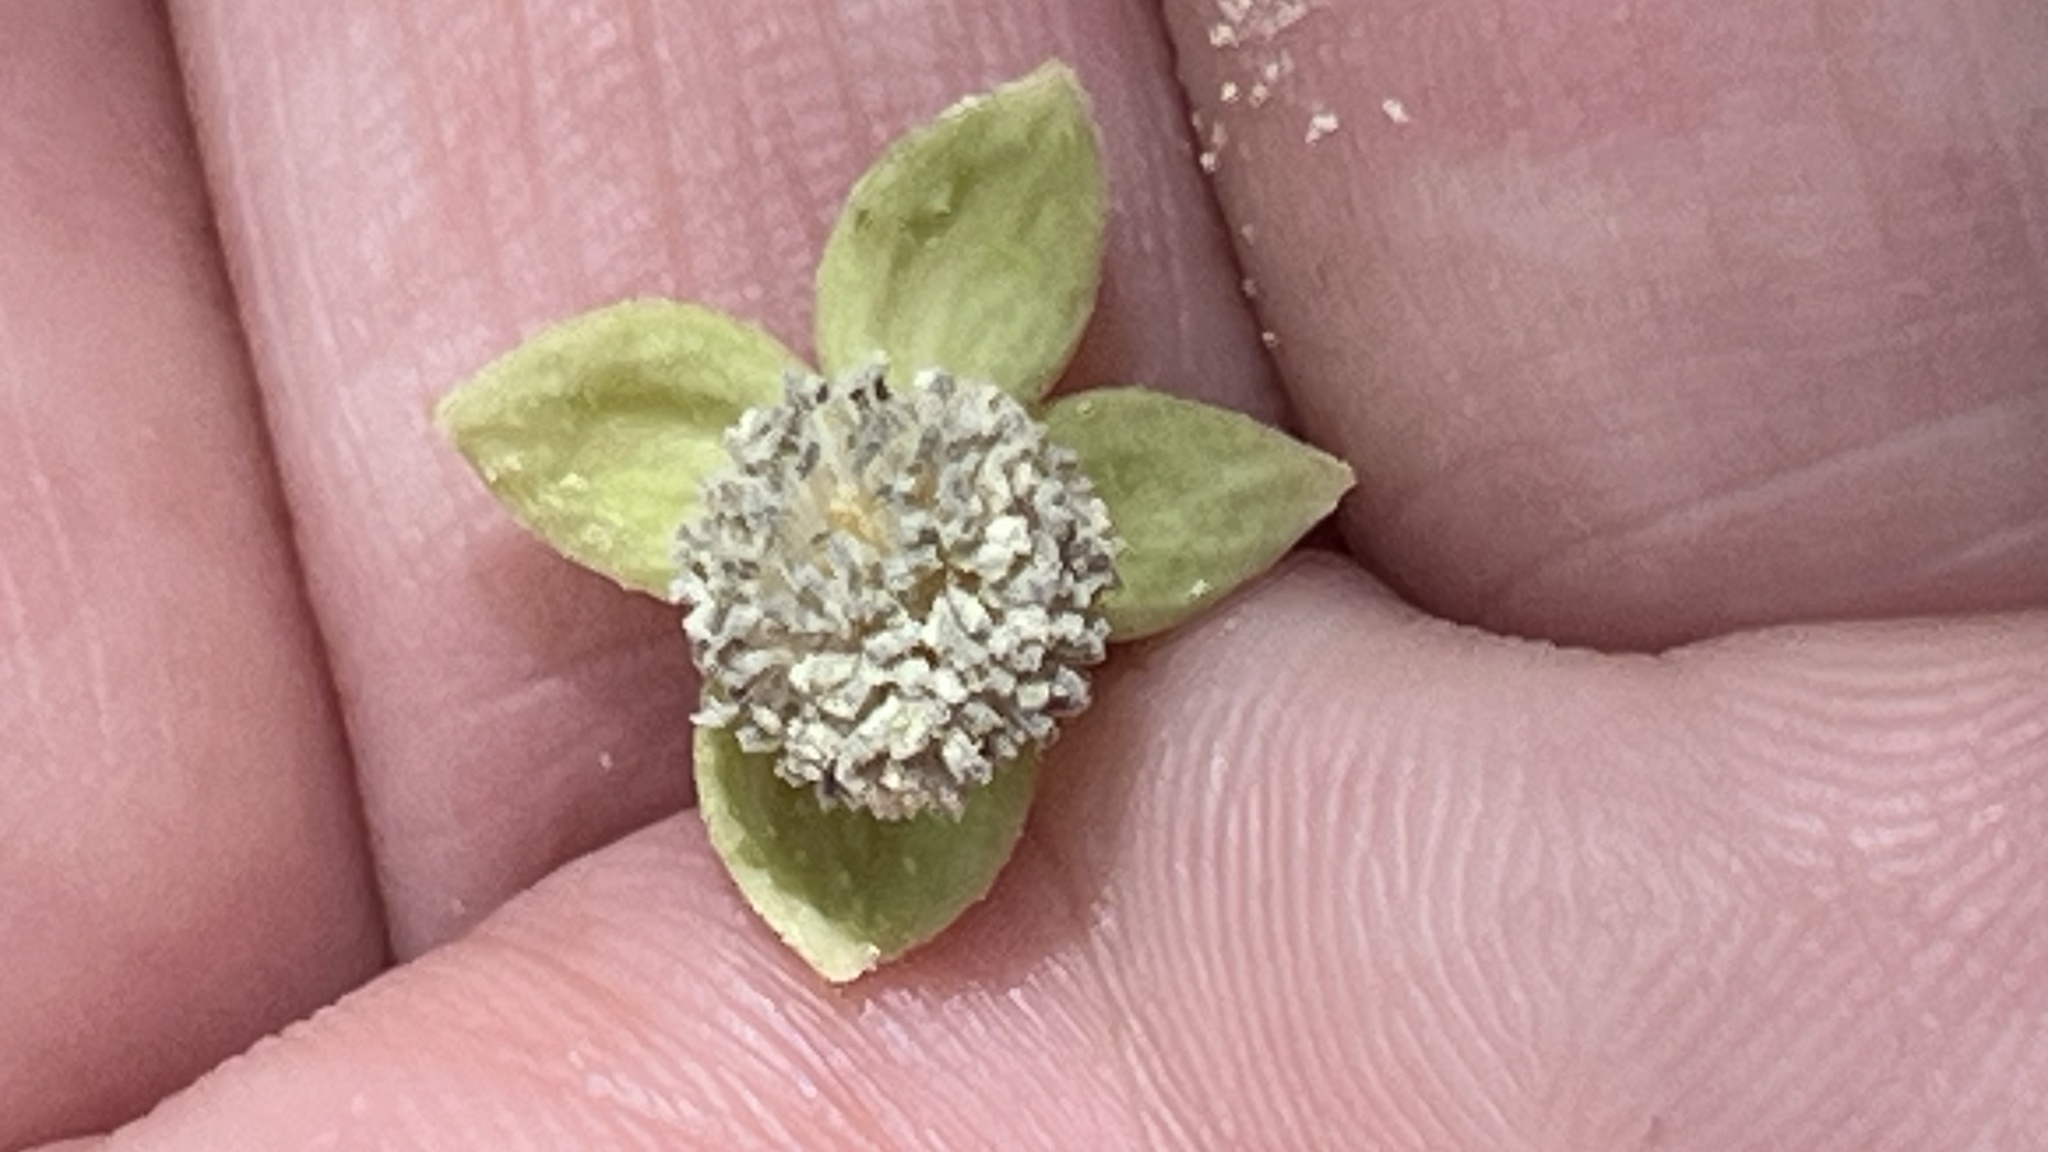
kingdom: Plantae
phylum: Tracheophyta
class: Magnoliopsida
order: Malpighiales
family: Euphorbiaceae
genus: Melanolepis
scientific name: Melanolepis multiglandulosa
